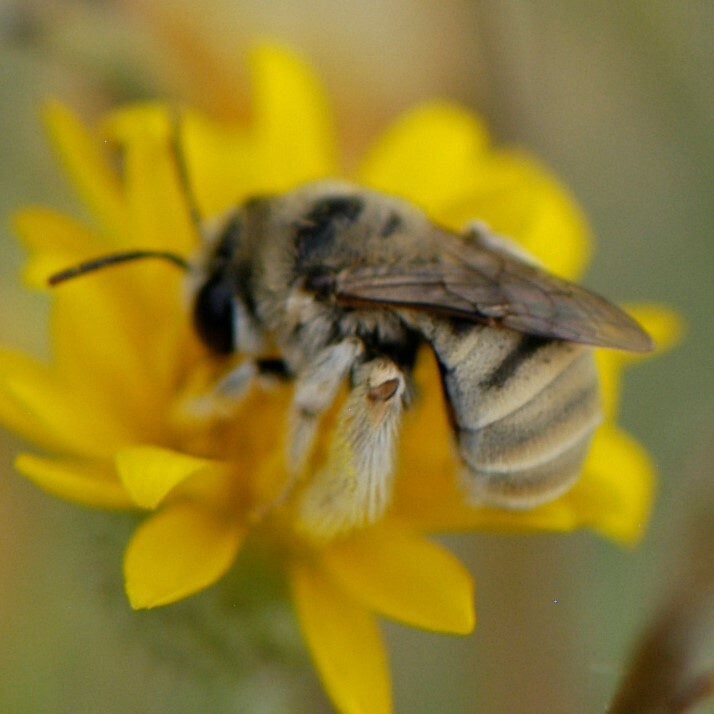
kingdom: Animalia
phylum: Arthropoda
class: Insecta
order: Hymenoptera
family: Apidae
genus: Tetraloniella
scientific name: Tetraloniella eriocarpi
